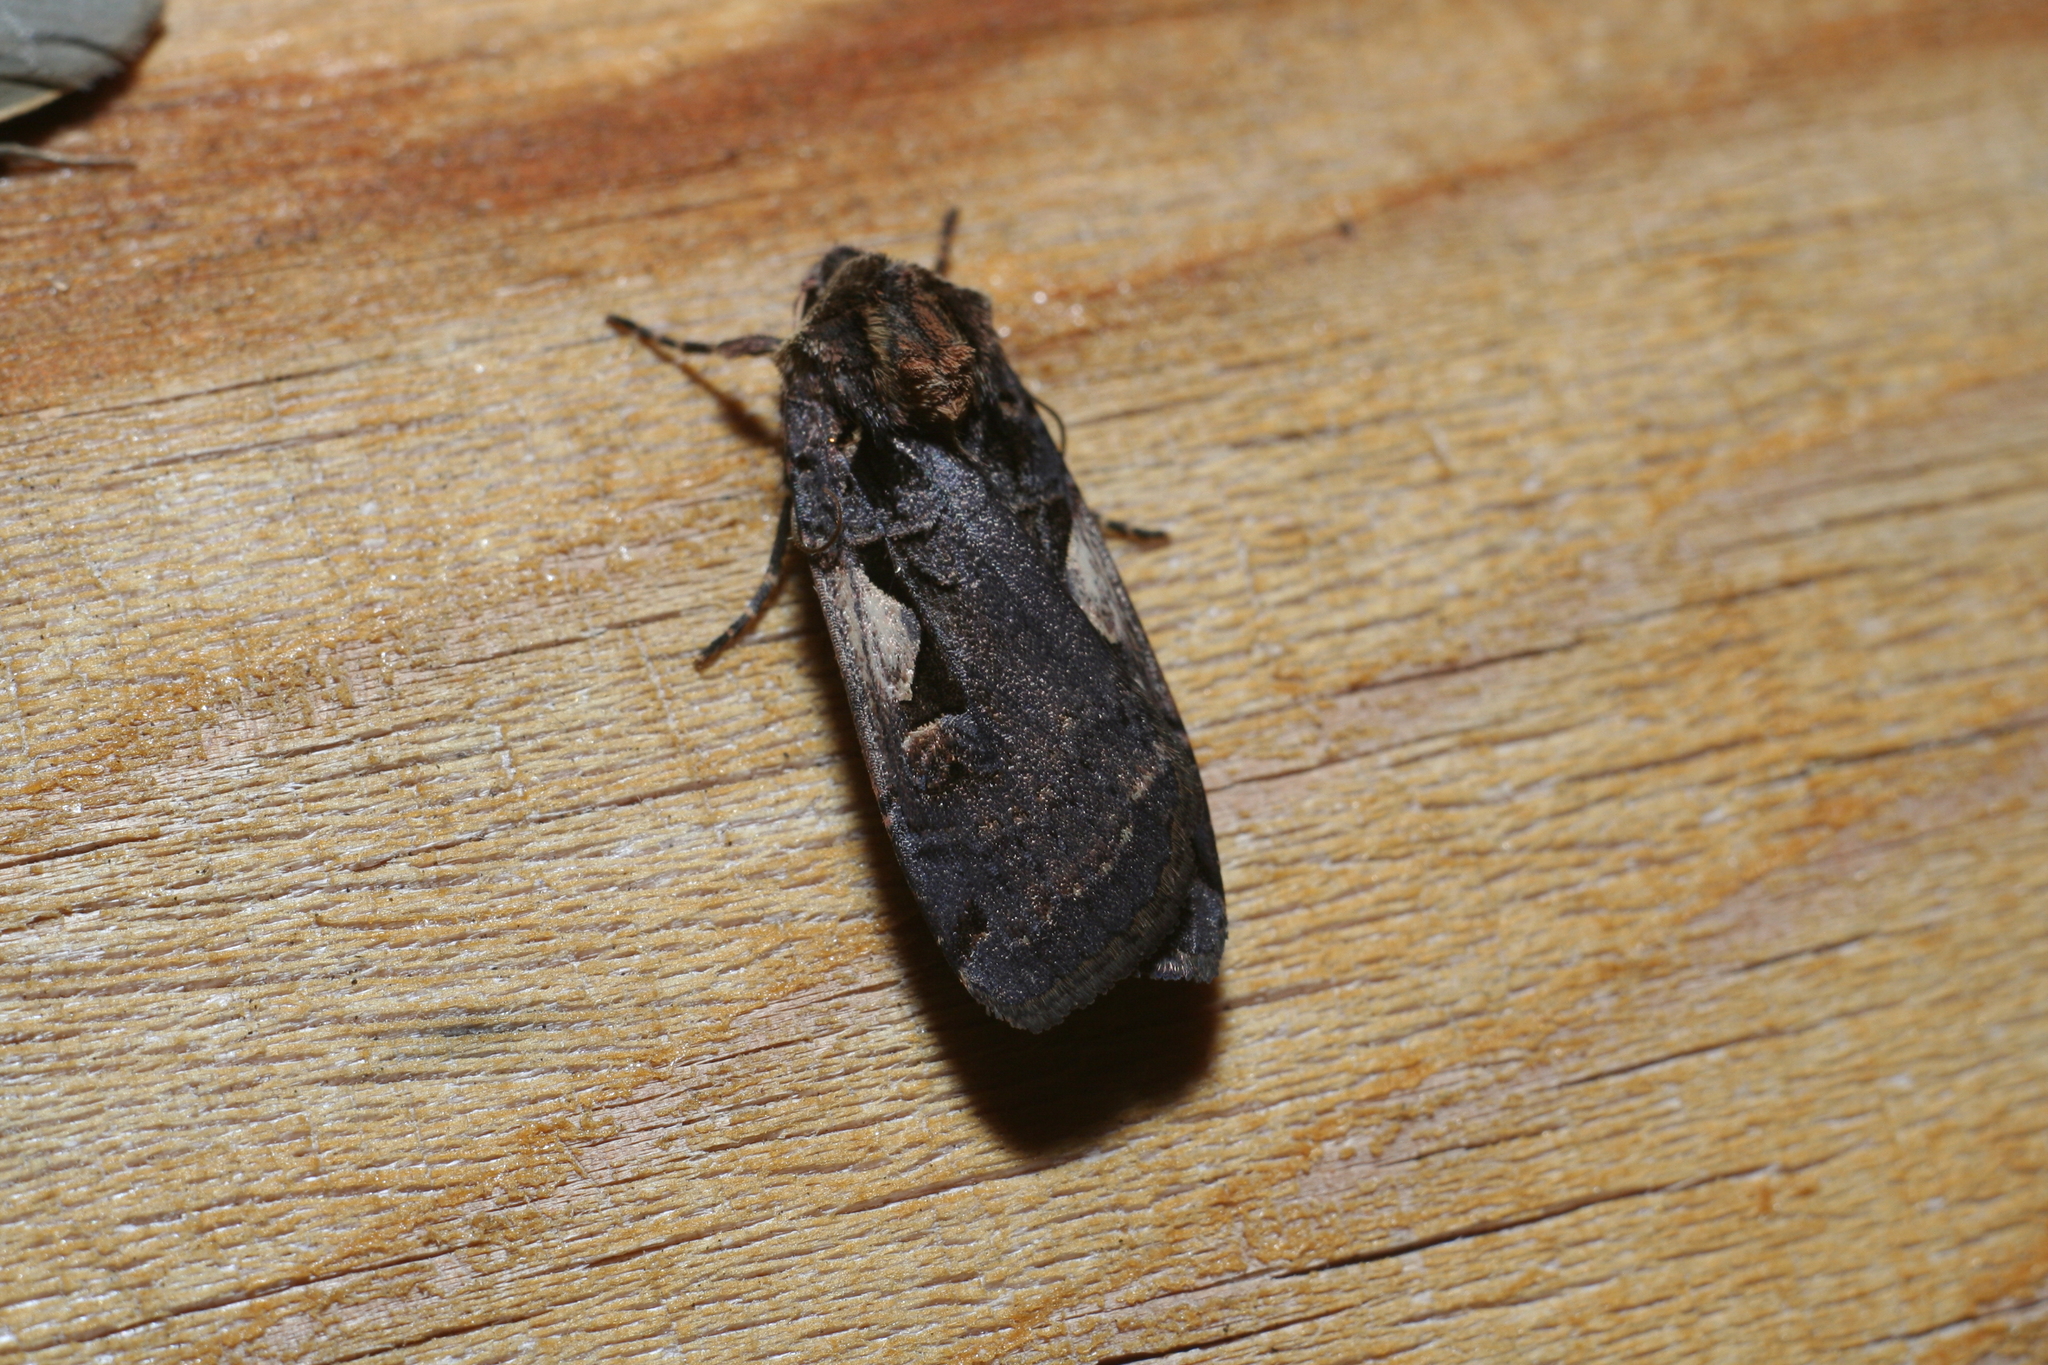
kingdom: Animalia
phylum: Arthropoda
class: Insecta
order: Lepidoptera
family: Noctuidae
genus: Xestia
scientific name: Xestia c-nigrum
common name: Setaceous hebrew character
